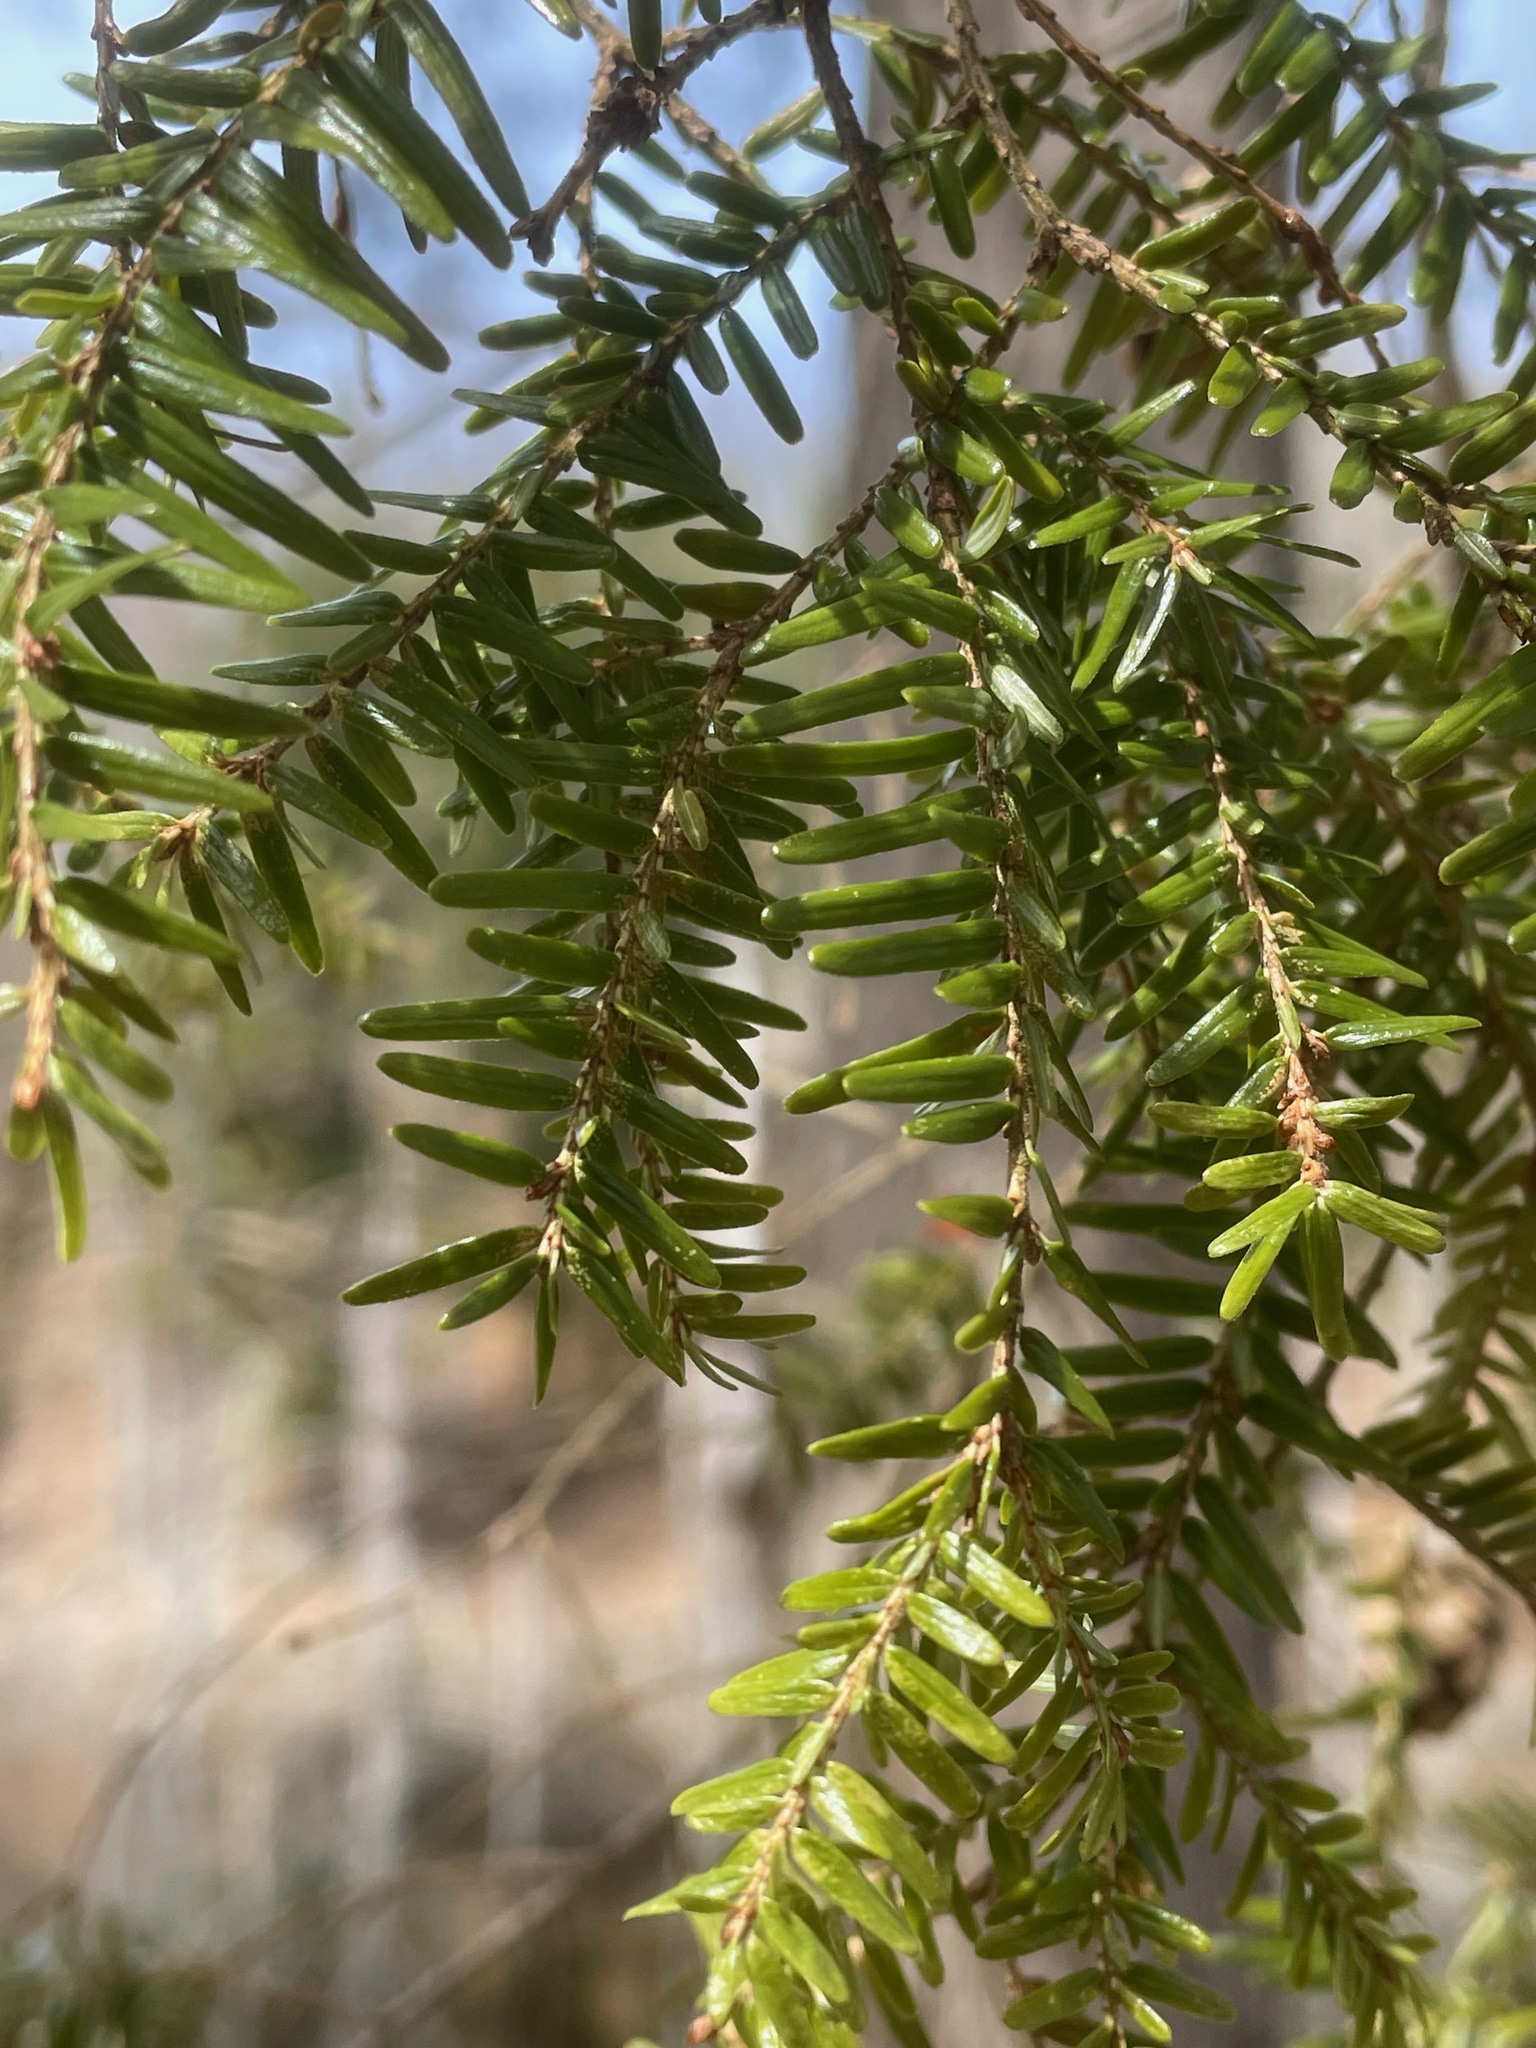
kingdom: Plantae
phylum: Tracheophyta
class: Pinopsida
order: Pinales
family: Pinaceae
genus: Tsuga
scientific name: Tsuga canadensis
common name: Eastern hemlock
